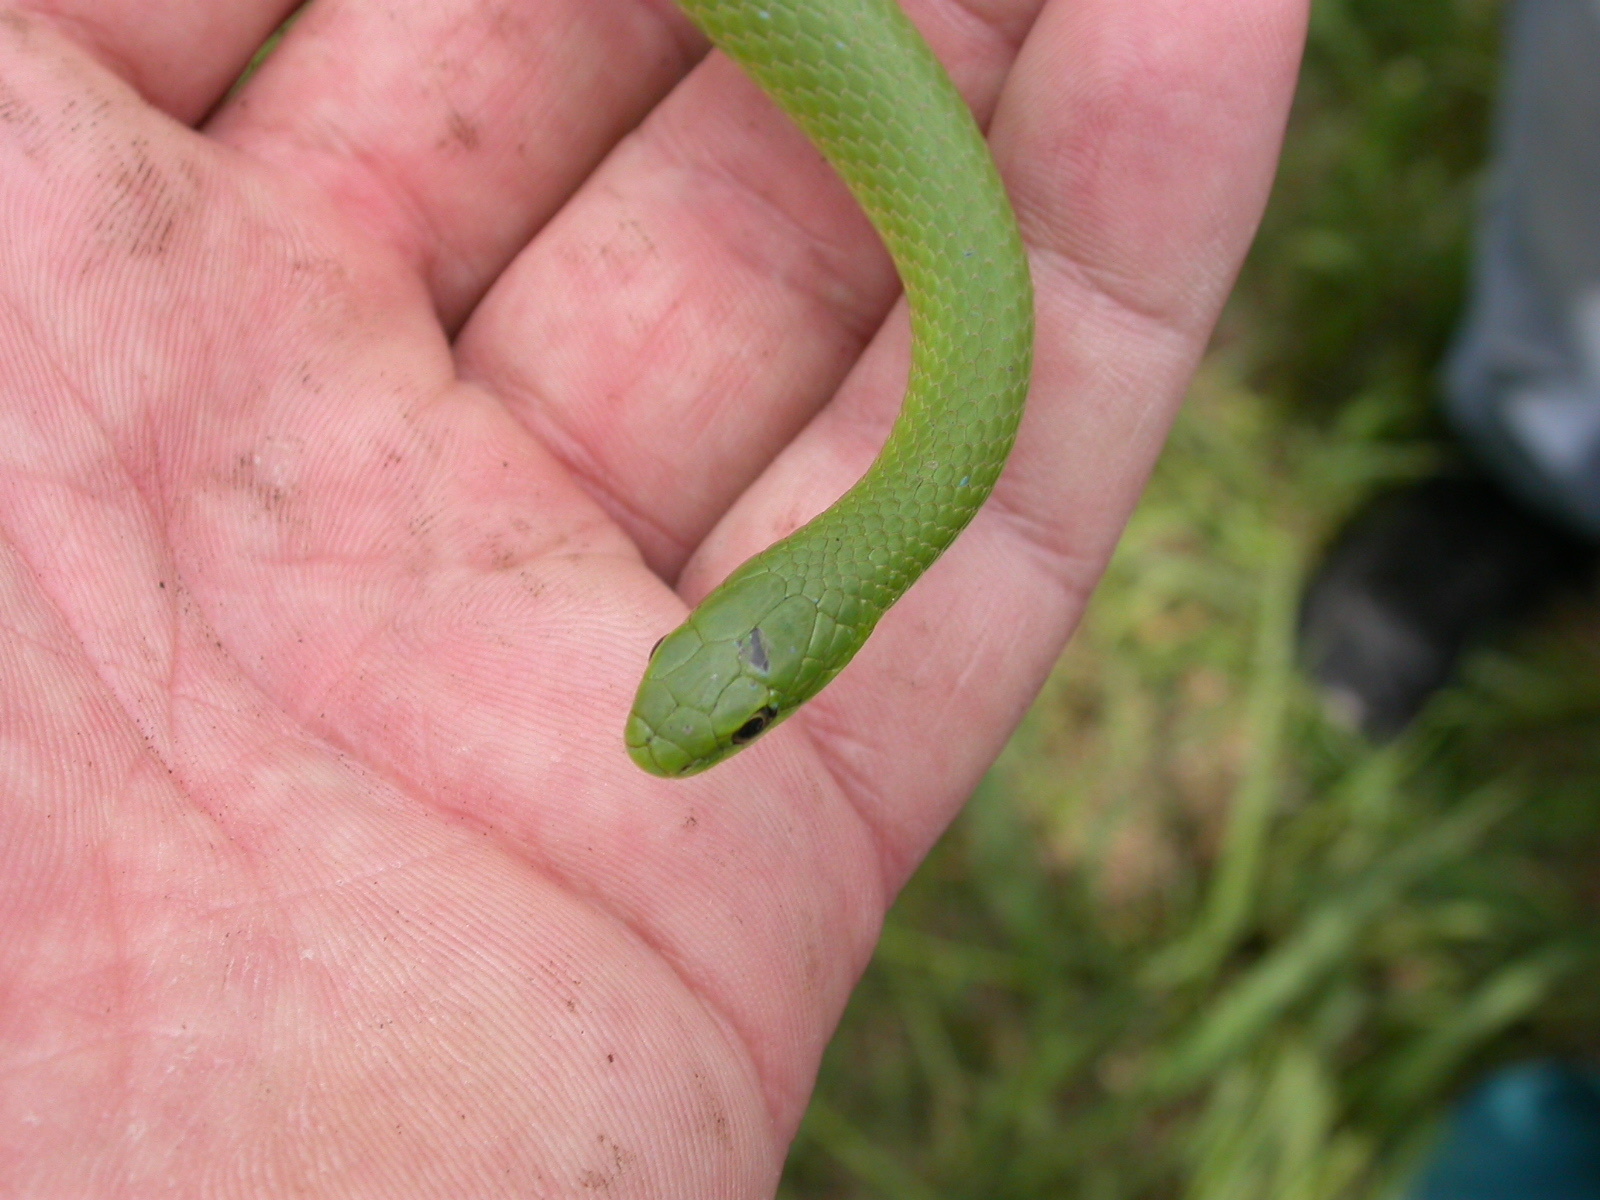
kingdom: Animalia
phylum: Chordata
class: Squamata
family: Colubridae
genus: Opheodrys
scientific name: Opheodrys vernalis
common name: Smooth green snake
